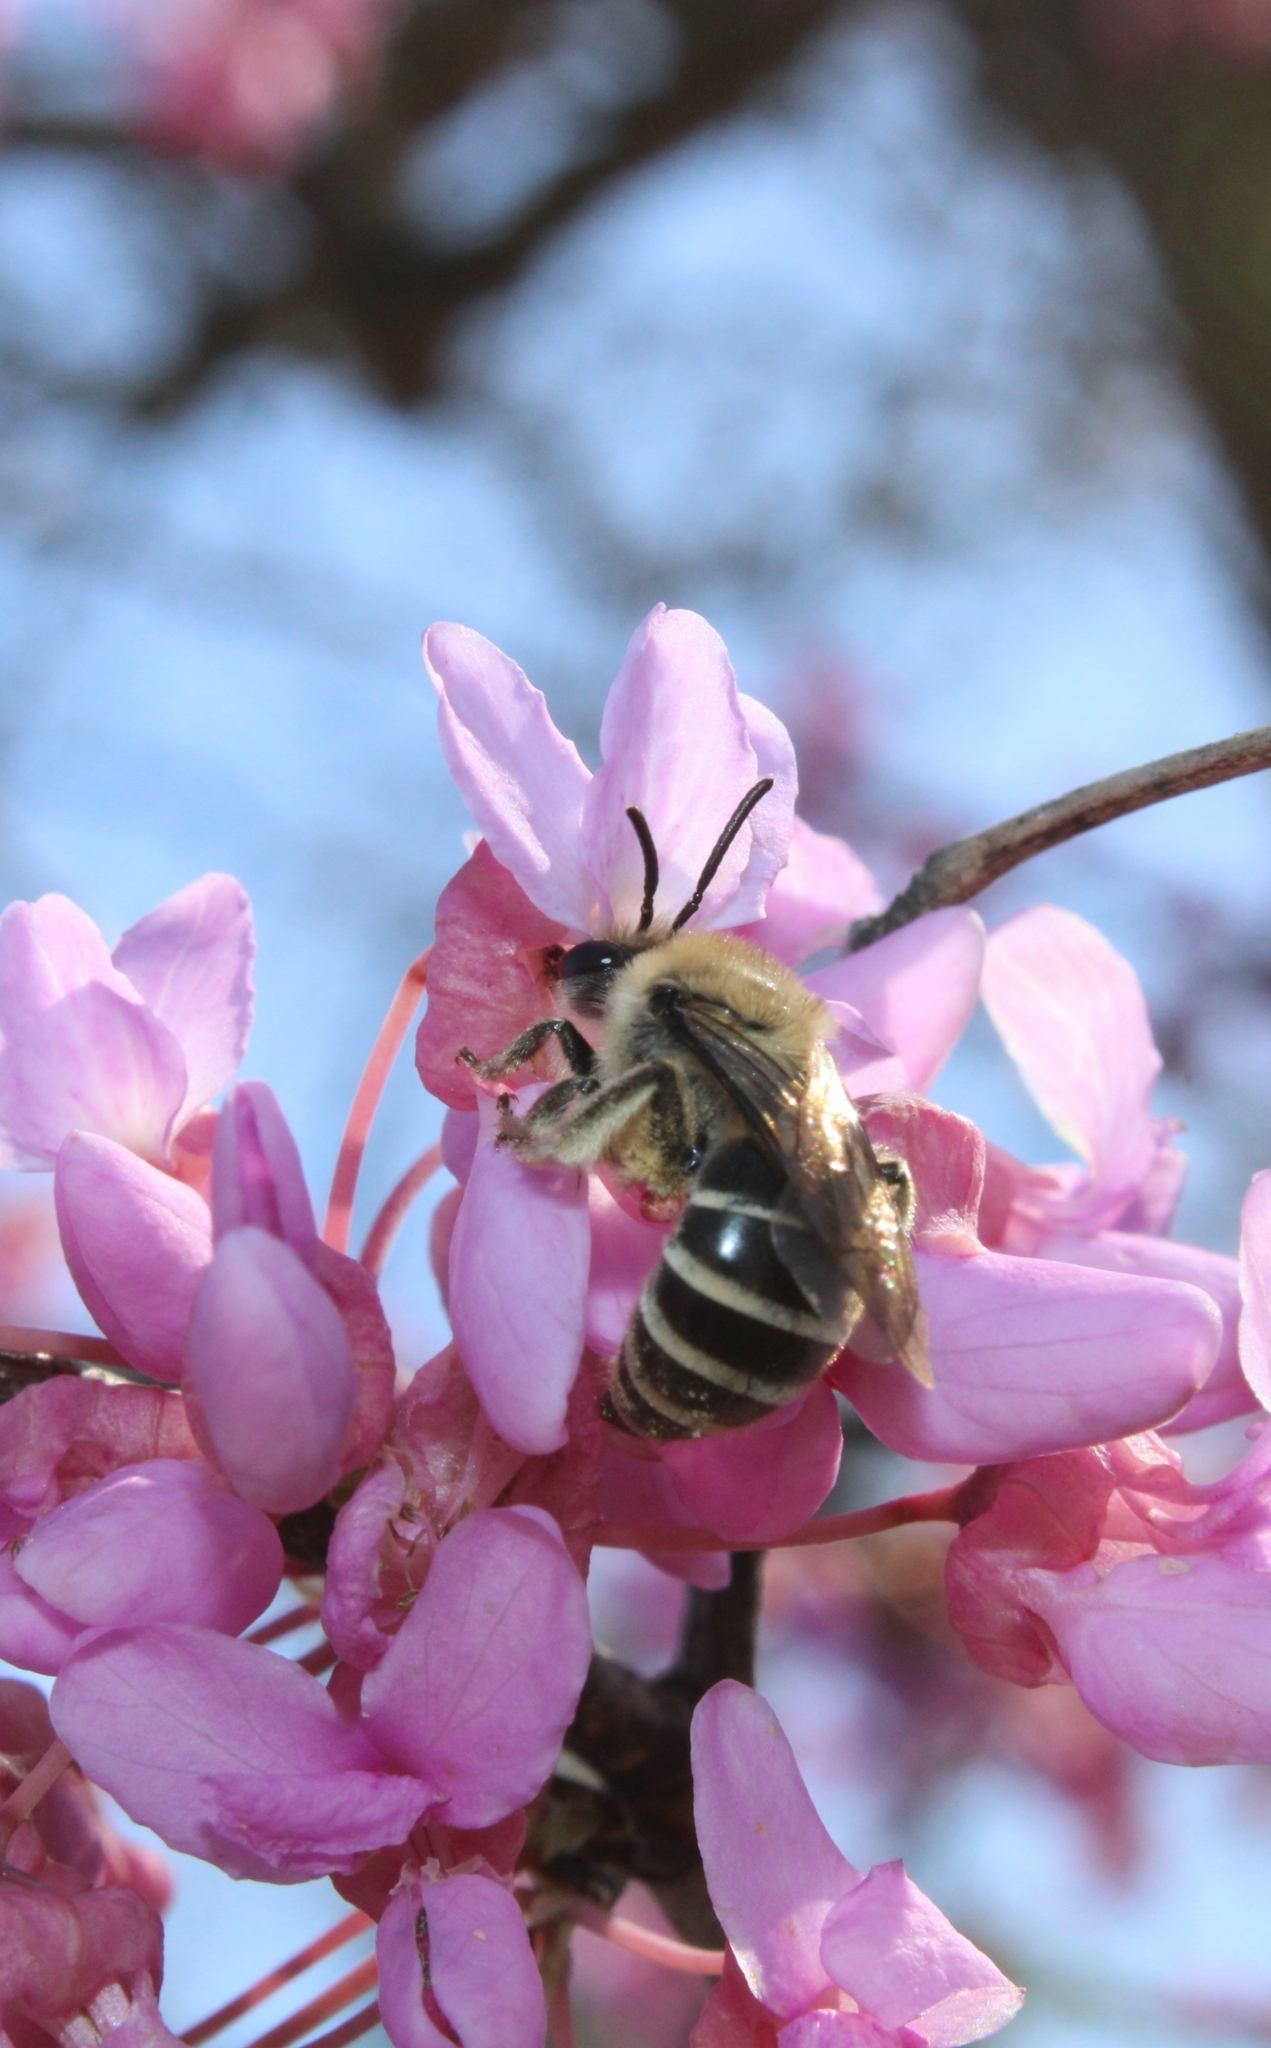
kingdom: Animalia
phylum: Arthropoda
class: Insecta
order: Hymenoptera
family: Colletidae
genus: Colletes
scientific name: Colletes inaequalis
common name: Unequal cellophane bee
